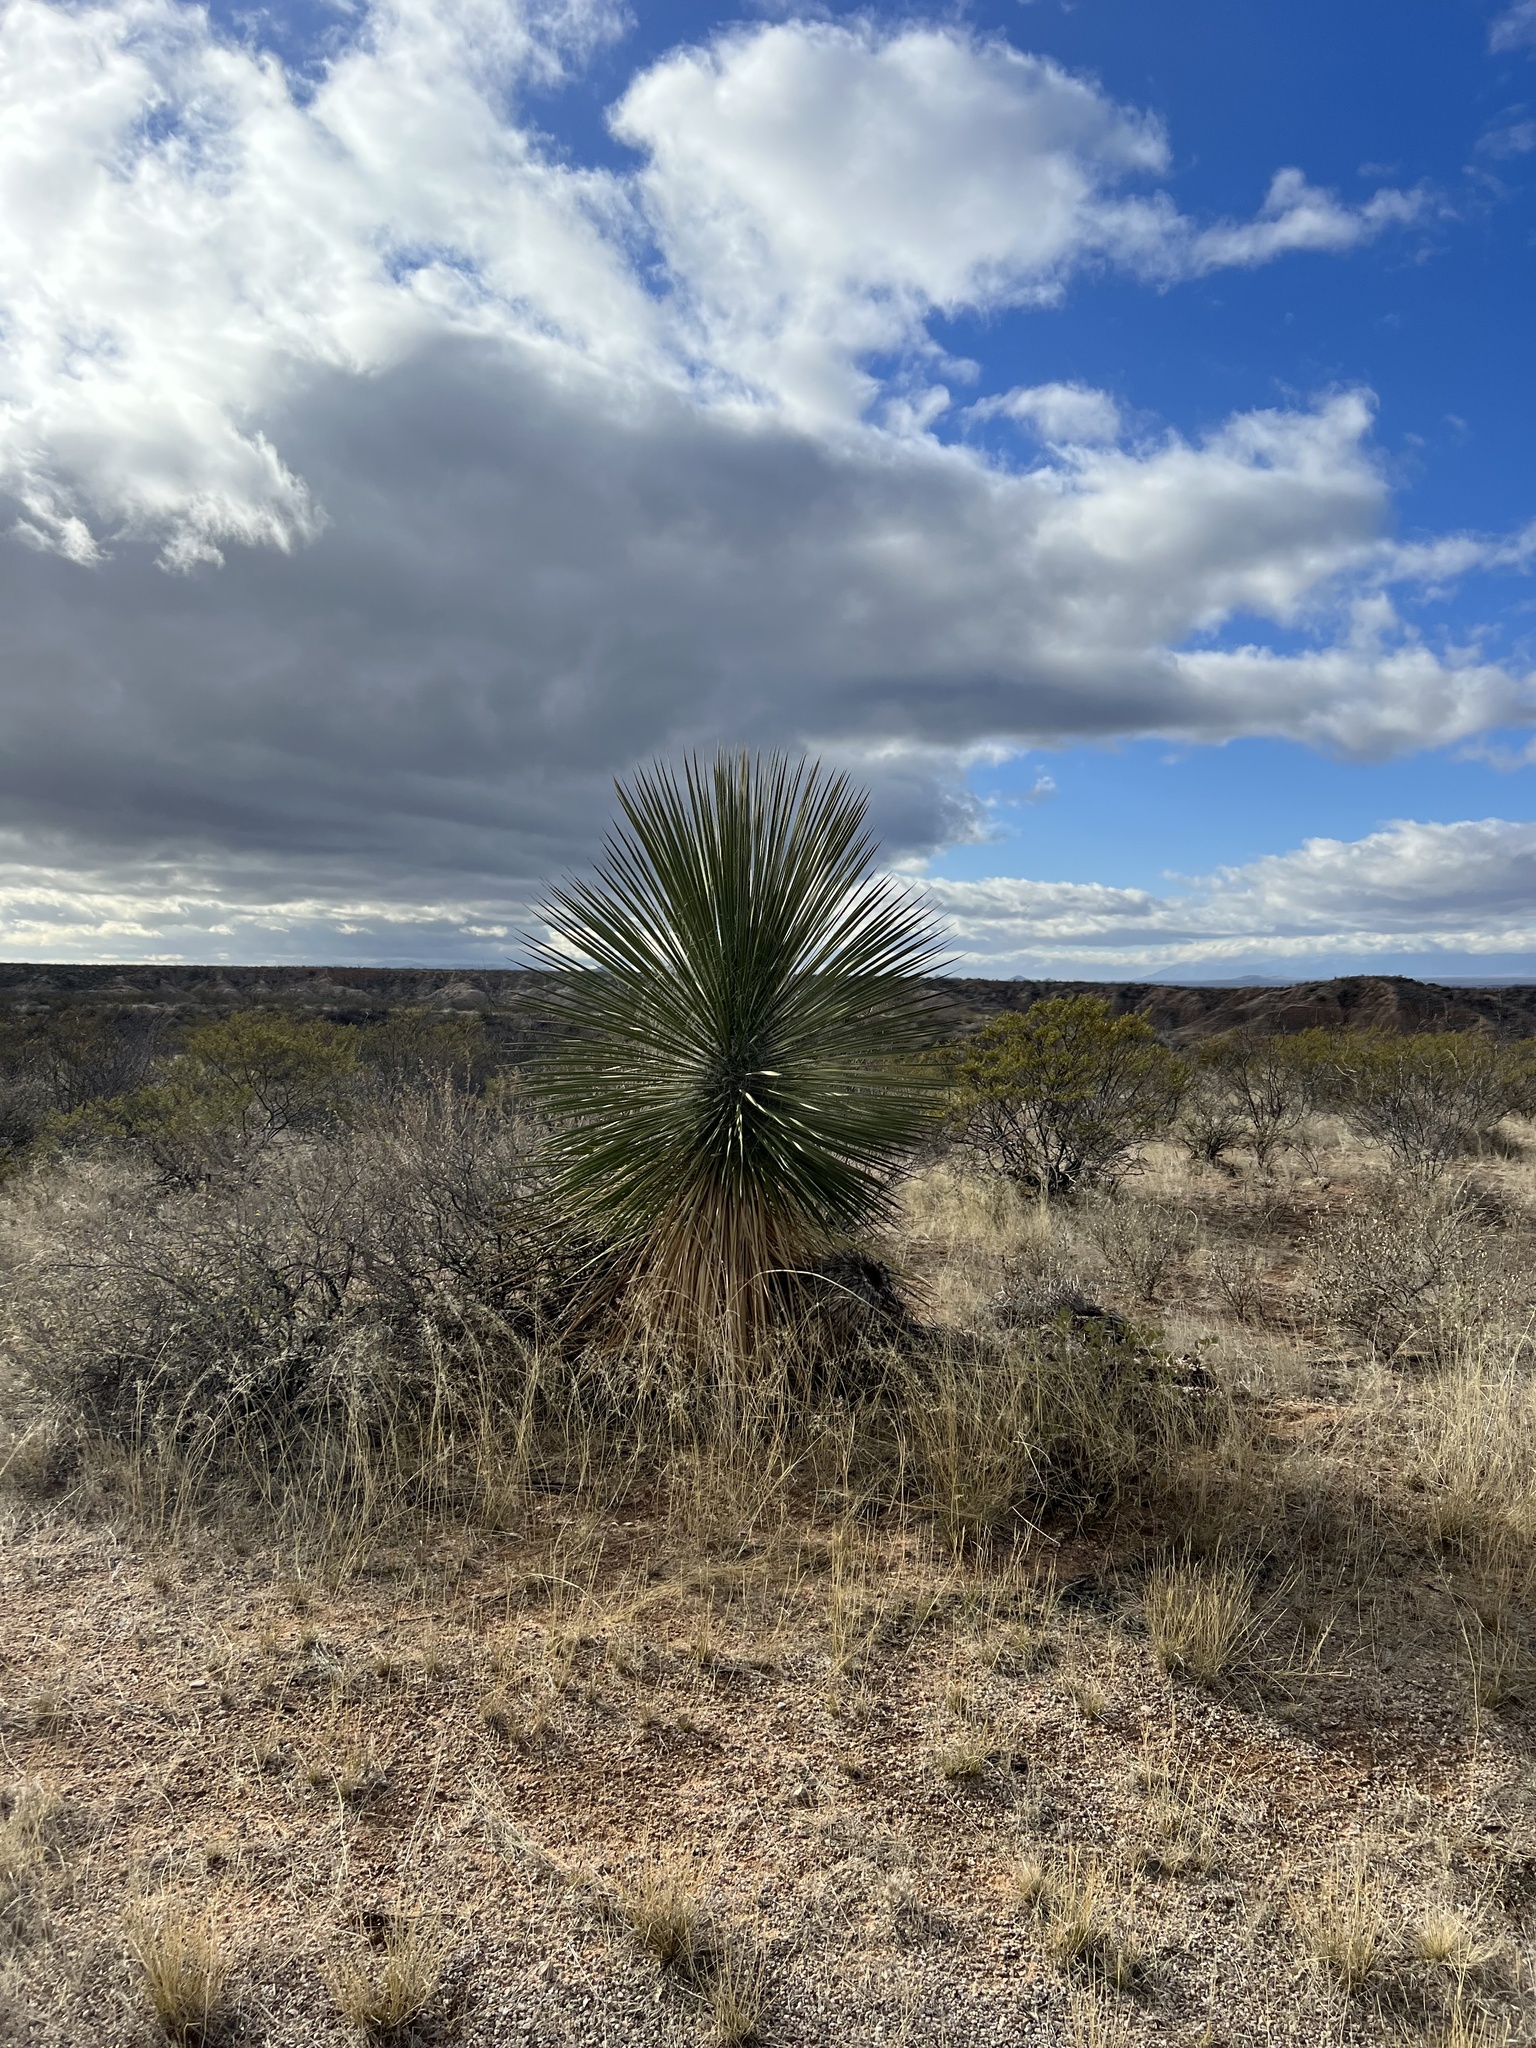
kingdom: Plantae
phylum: Tracheophyta
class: Liliopsida
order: Asparagales
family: Asparagaceae
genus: Yucca
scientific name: Yucca elata
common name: Palmella
